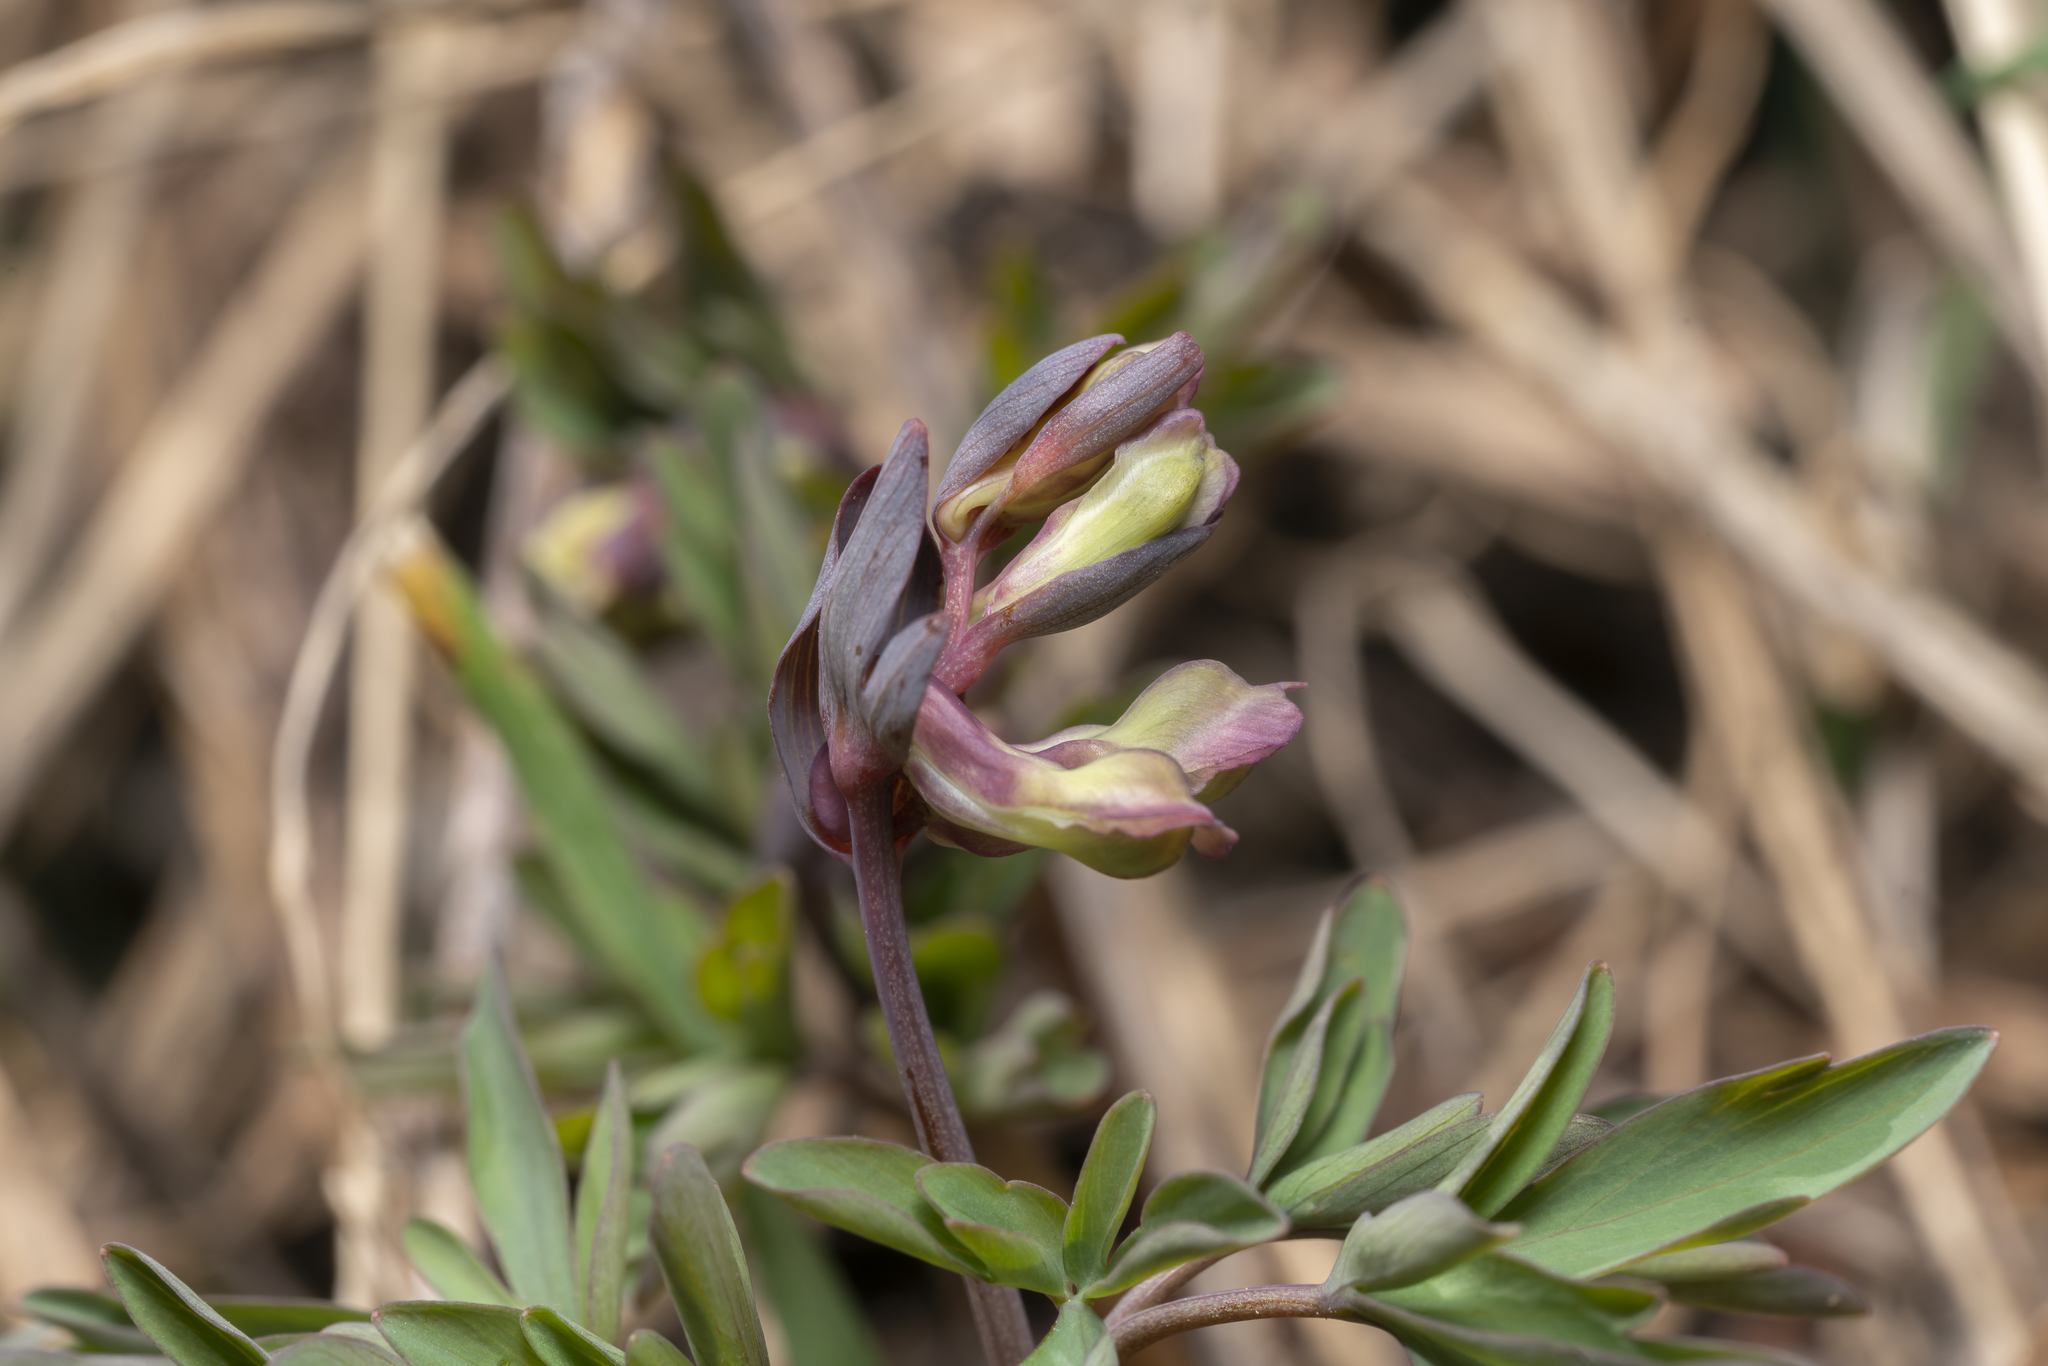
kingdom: Plantae
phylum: Tracheophyta
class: Magnoliopsida
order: Ranunculales
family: Papaveraceae
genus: Corydalis
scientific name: Corydalis cava
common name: Hollowroot
